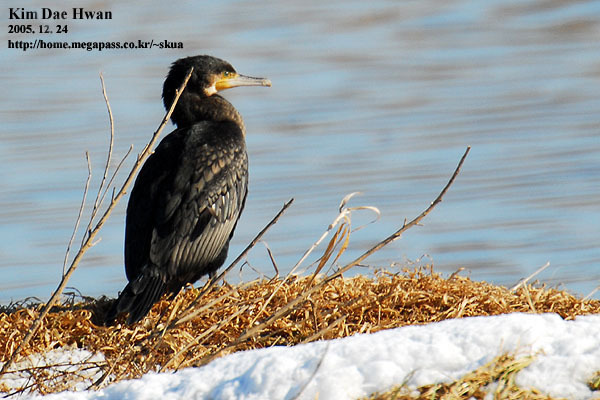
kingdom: Animalia
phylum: Chordata
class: Aves
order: Suliformes
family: Phalacrocoracidae
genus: Phalacrocorax
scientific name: Phalacrocorax carbo
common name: Great cormorant
